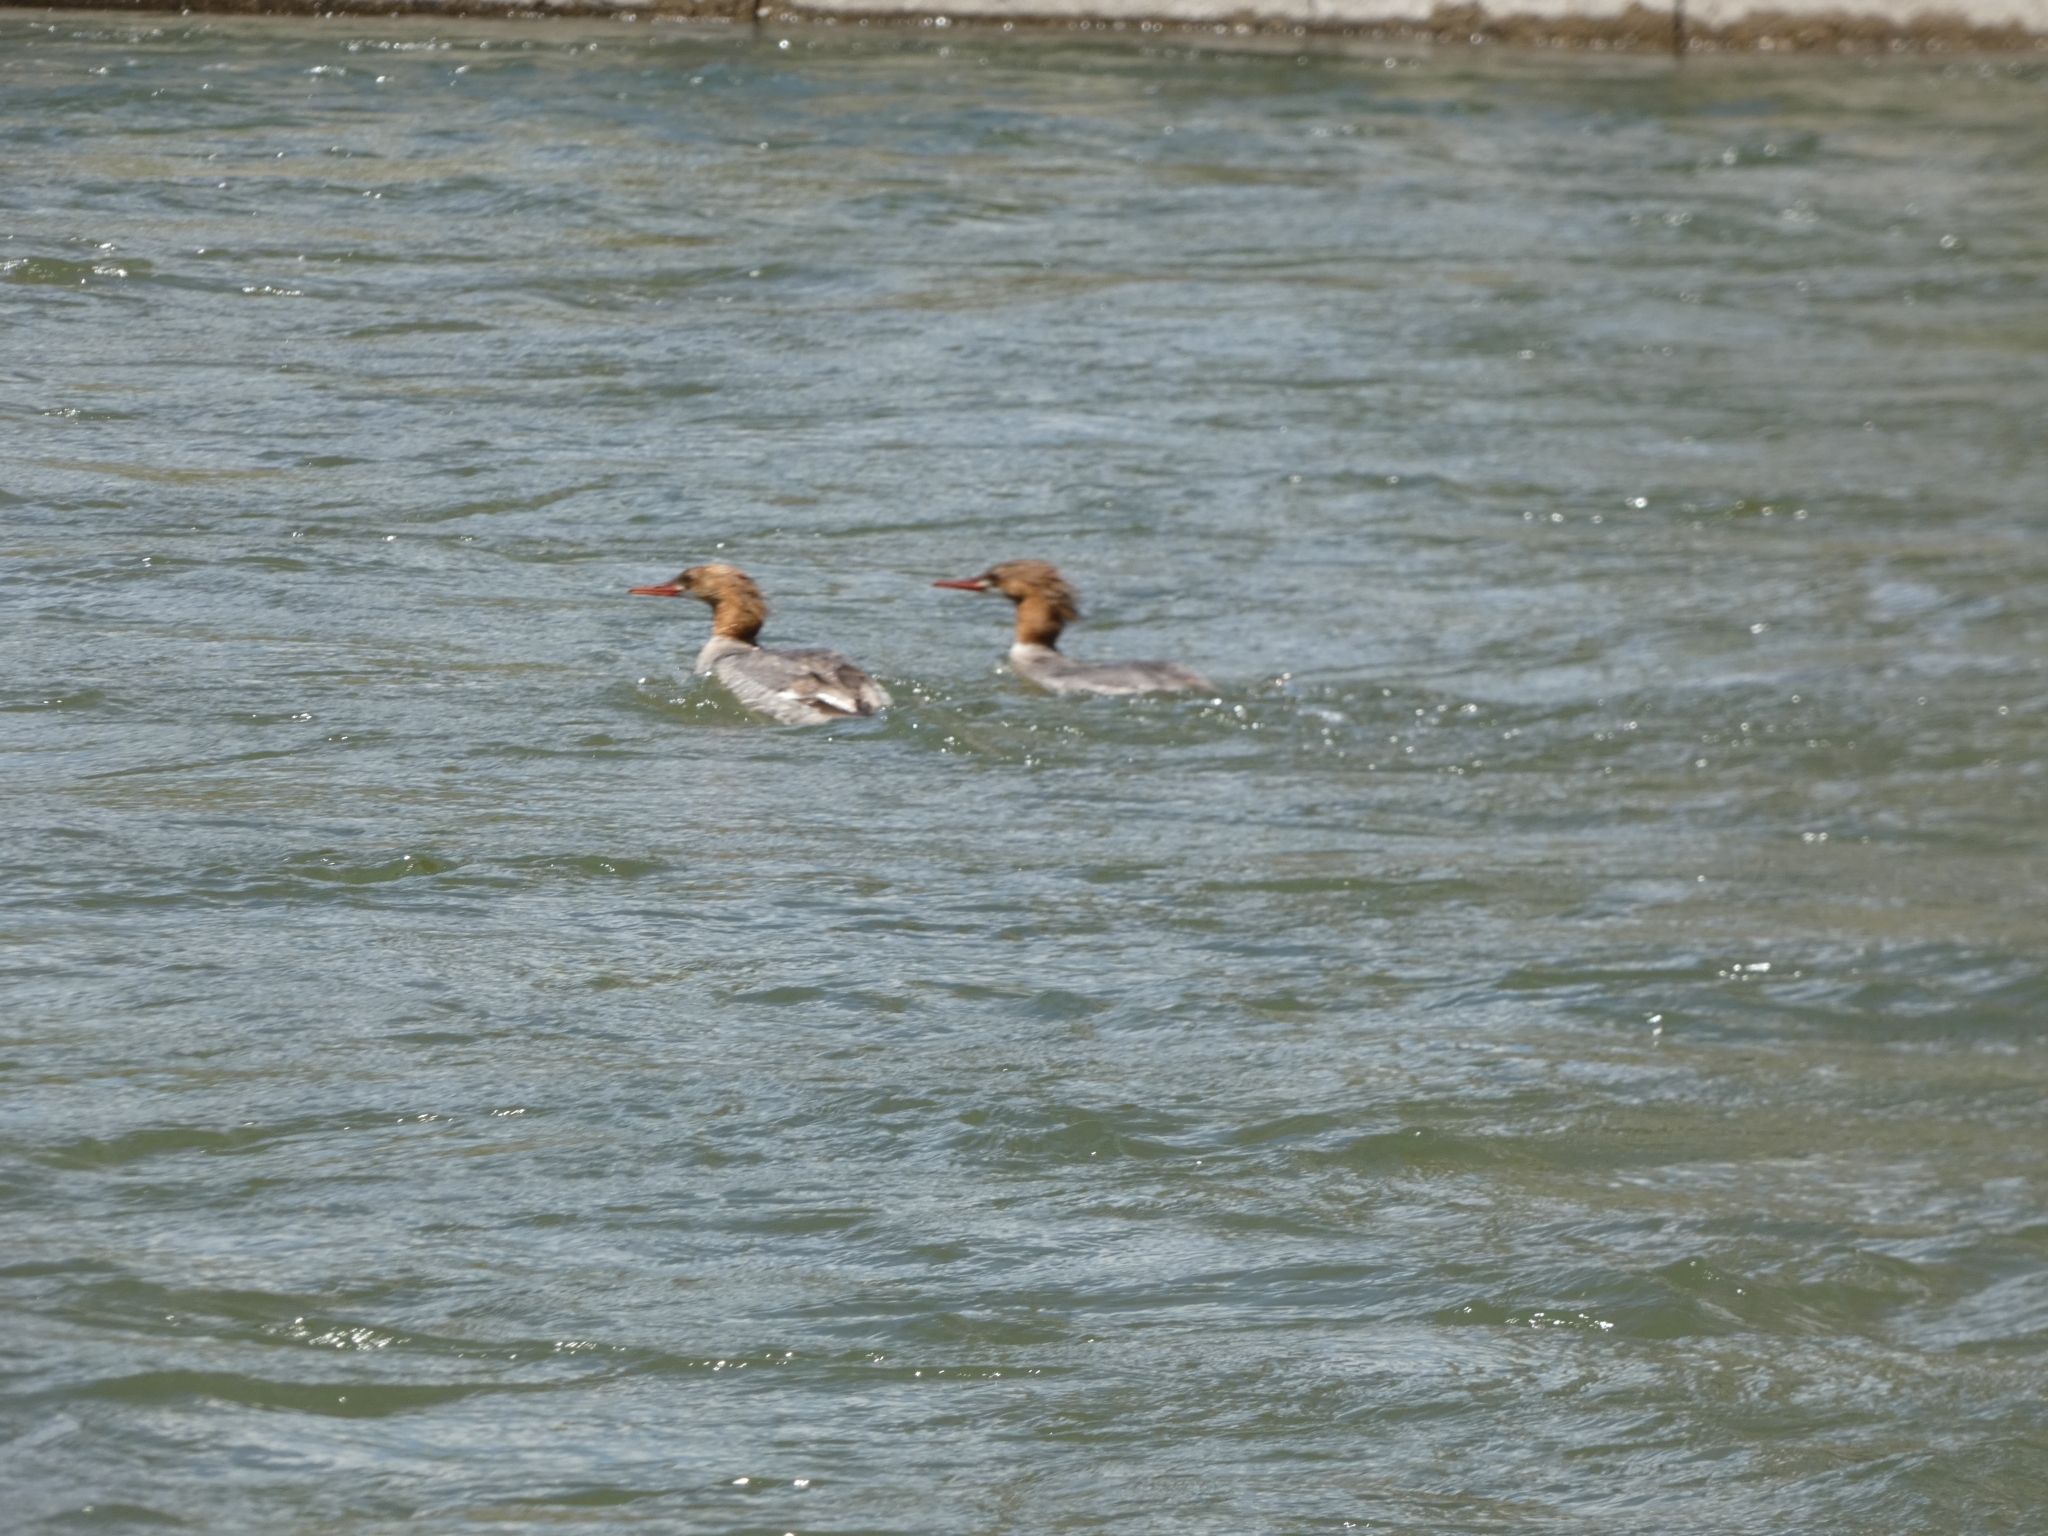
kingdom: Animalia
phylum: Chordata
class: Aves
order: Anseriformes
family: Anatidae
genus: Mergus
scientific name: Mergus merganser
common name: Common merganser
